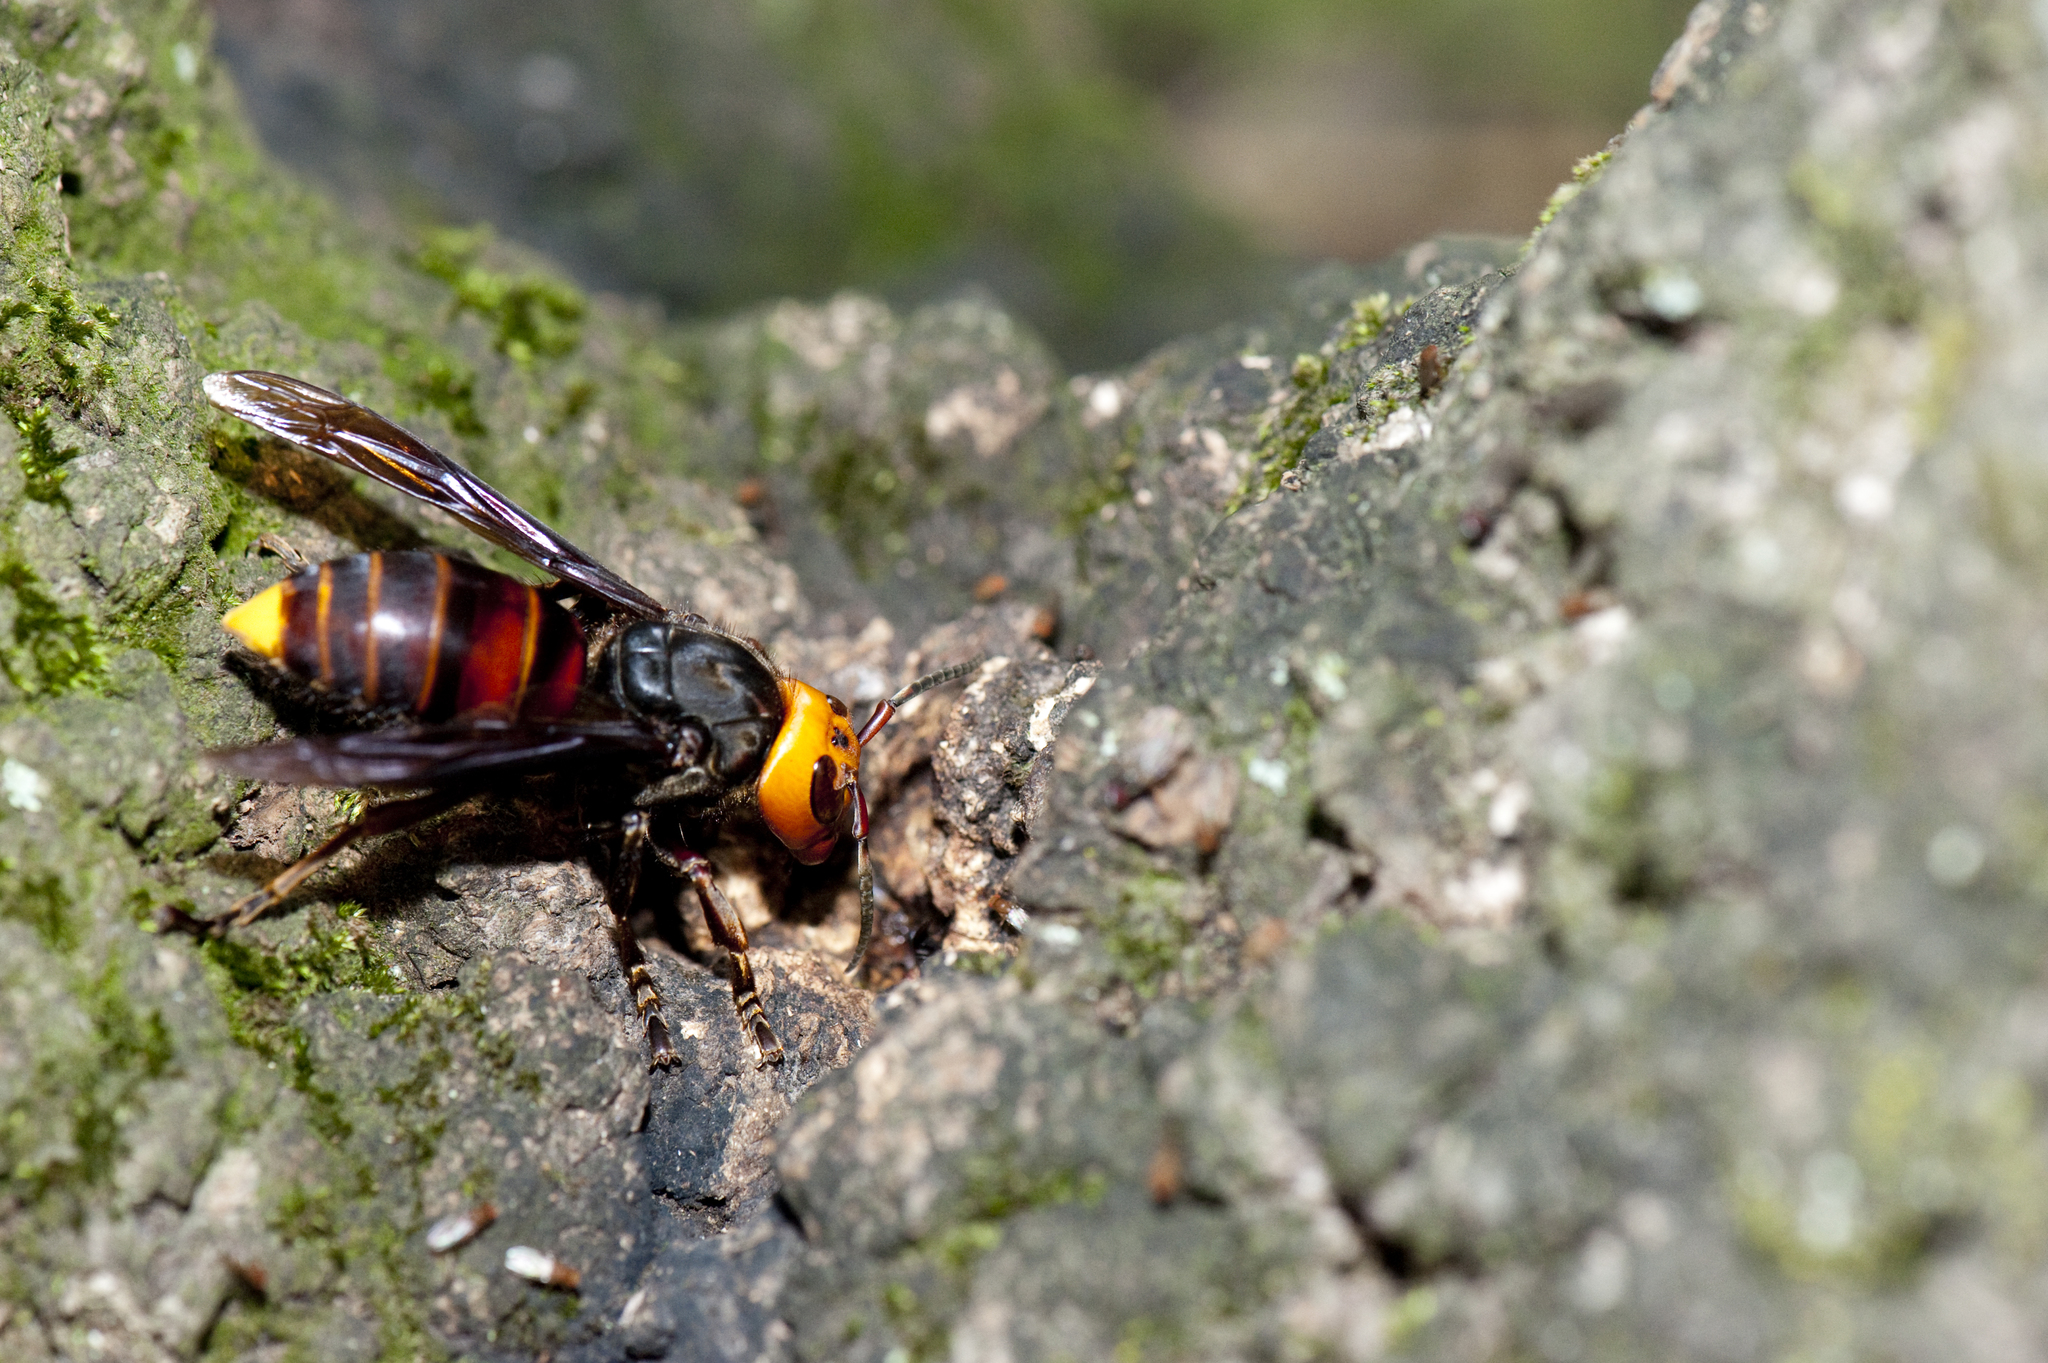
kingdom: Animalia
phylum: Arthropoda
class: Insecta
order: Hymenoptera
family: Vespidae
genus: Vespa
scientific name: Vespa mandarinia
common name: Asian giant hornet
